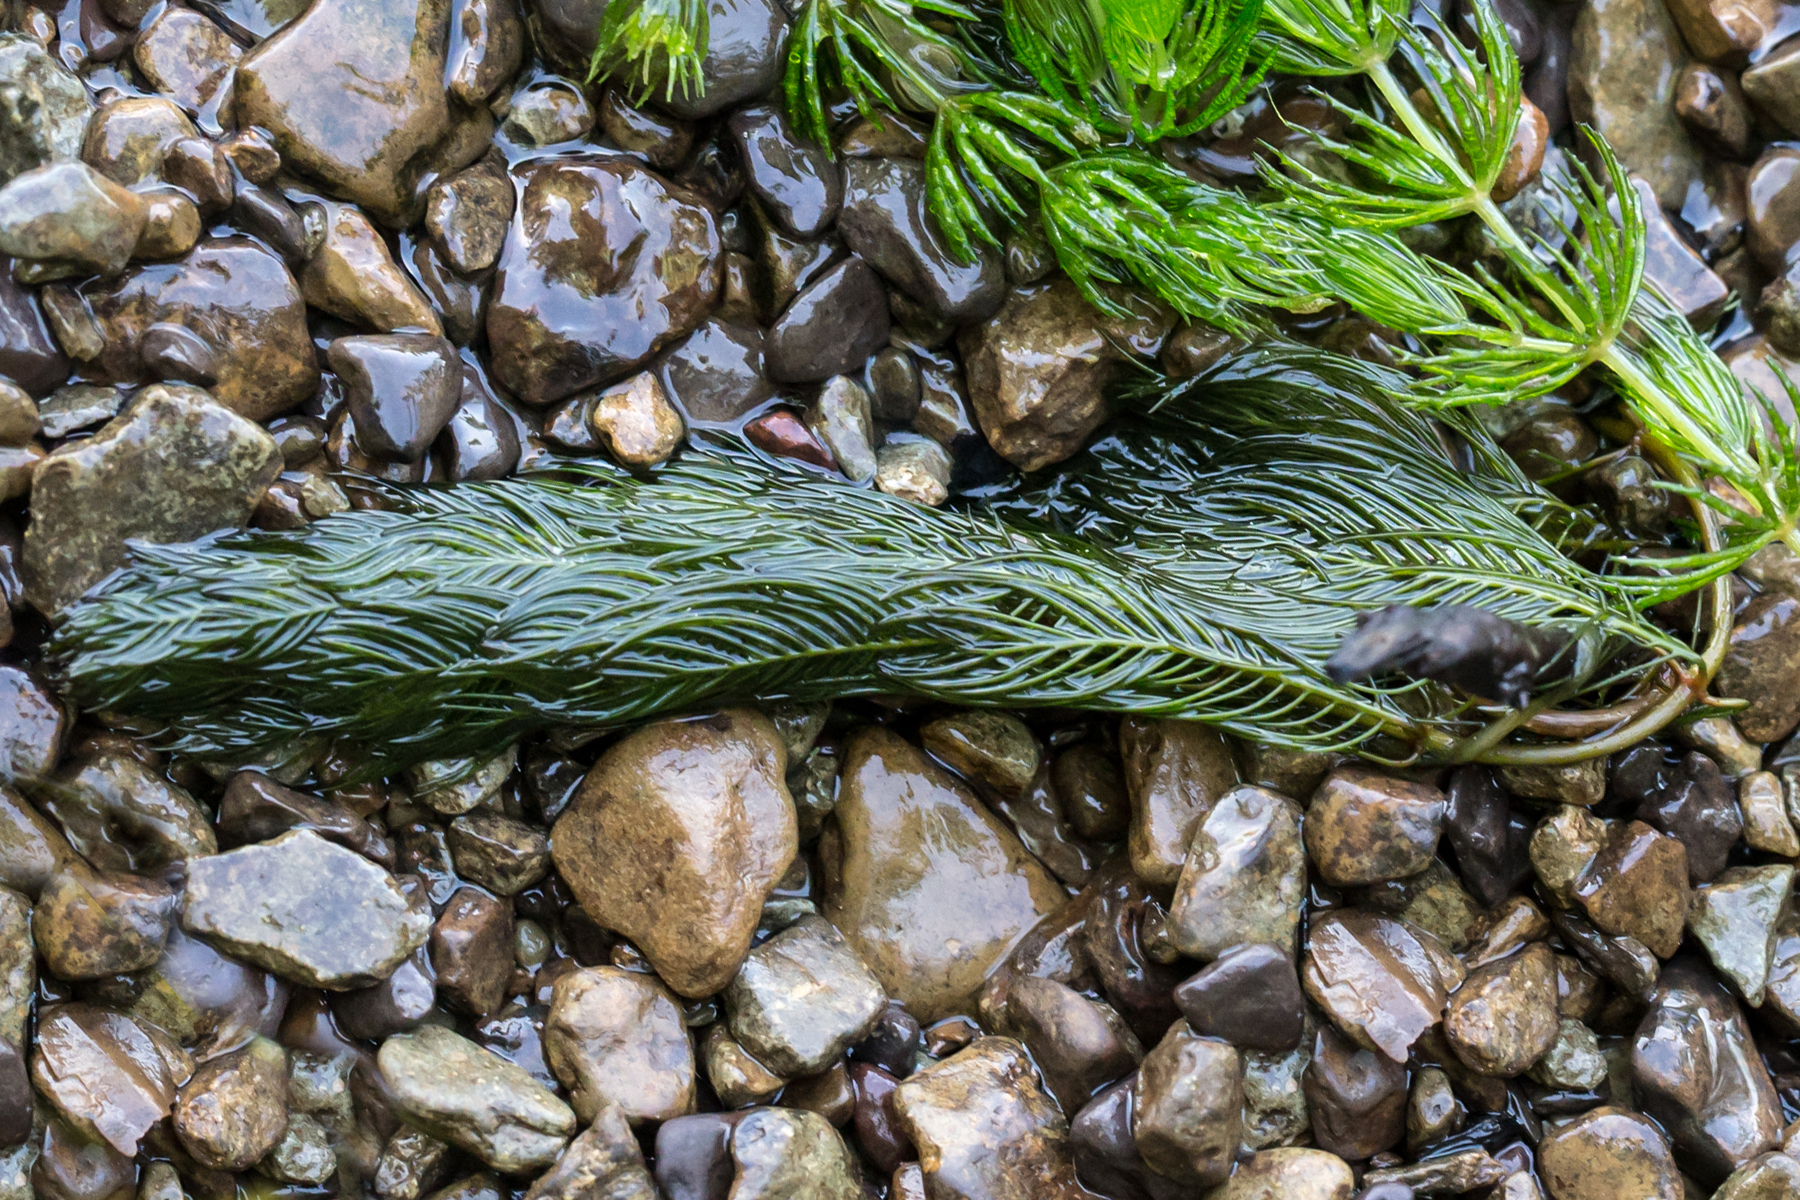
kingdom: Plantae
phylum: Tracheophyta
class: Magnoliopsida
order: Saxifragales
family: Haloragaceae
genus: Myriophyllum
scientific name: Myriophyllum spicatum
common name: Spiked water-milfoil
